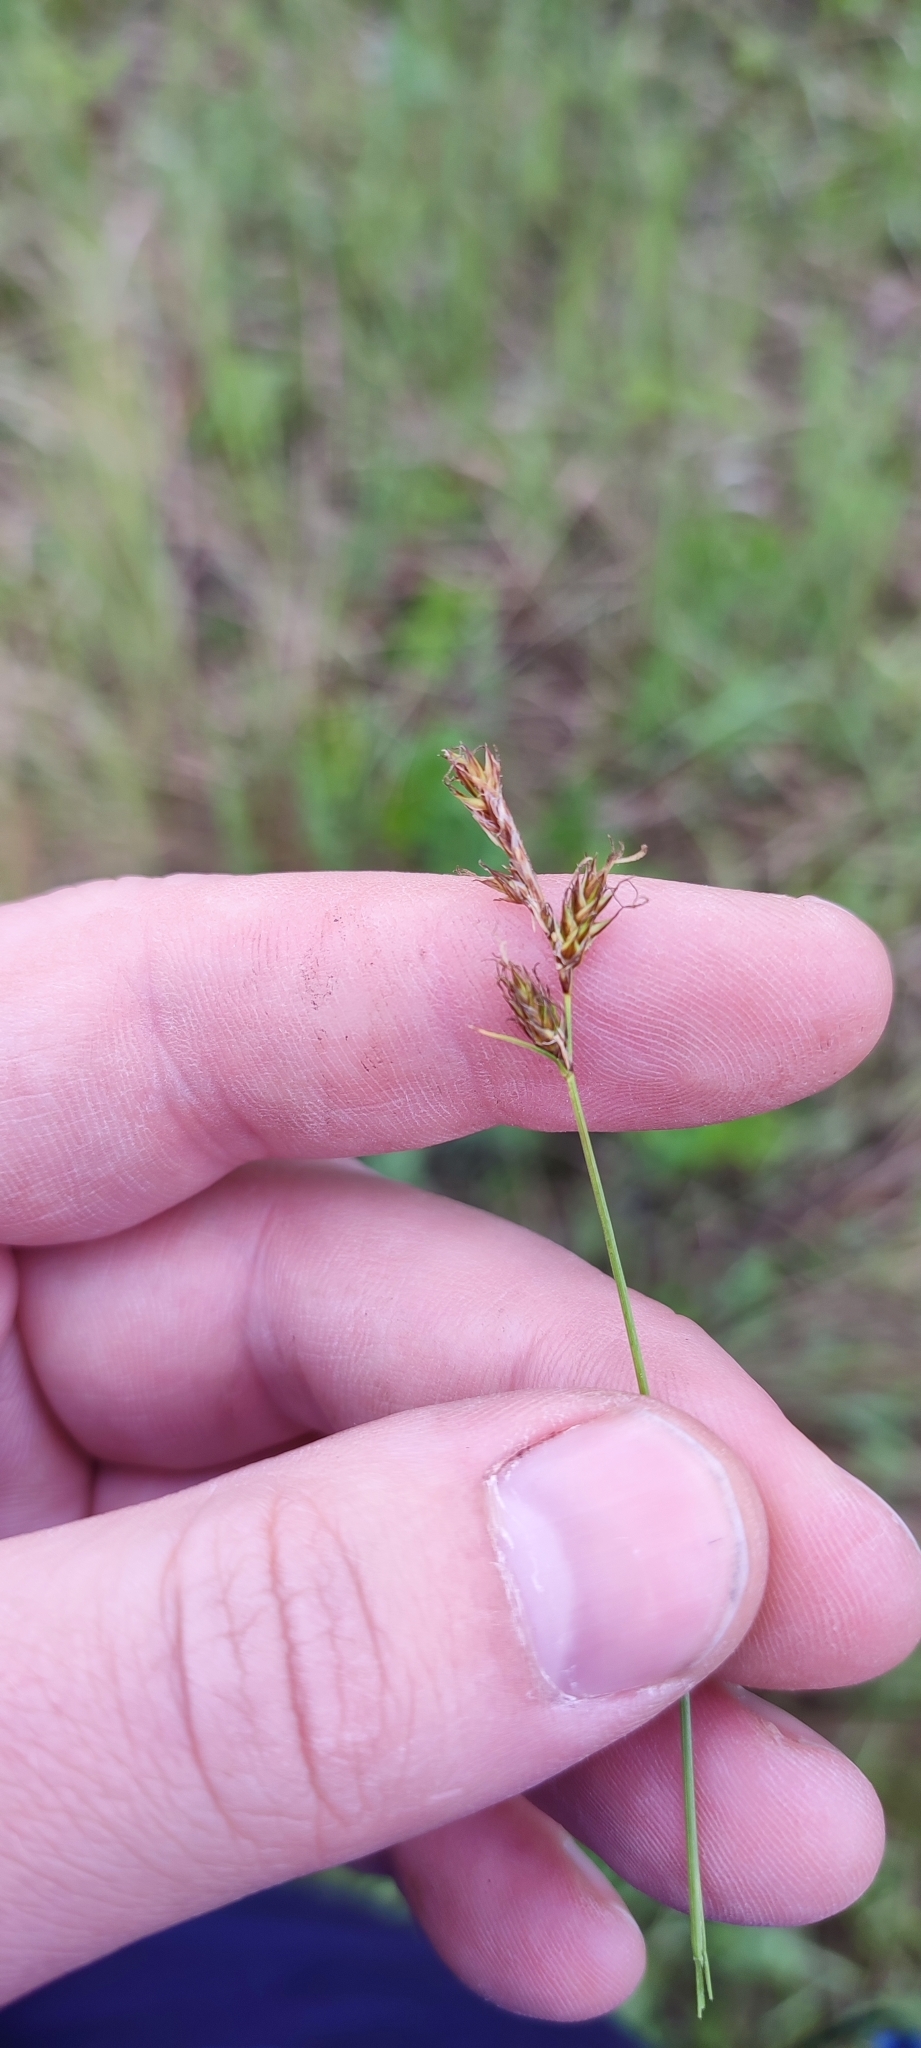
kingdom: Plantae
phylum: Tracheophyta
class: Liliopsida
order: Poales
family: Cyperaceae
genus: Carex
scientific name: Carex praecox
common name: Early sedge
